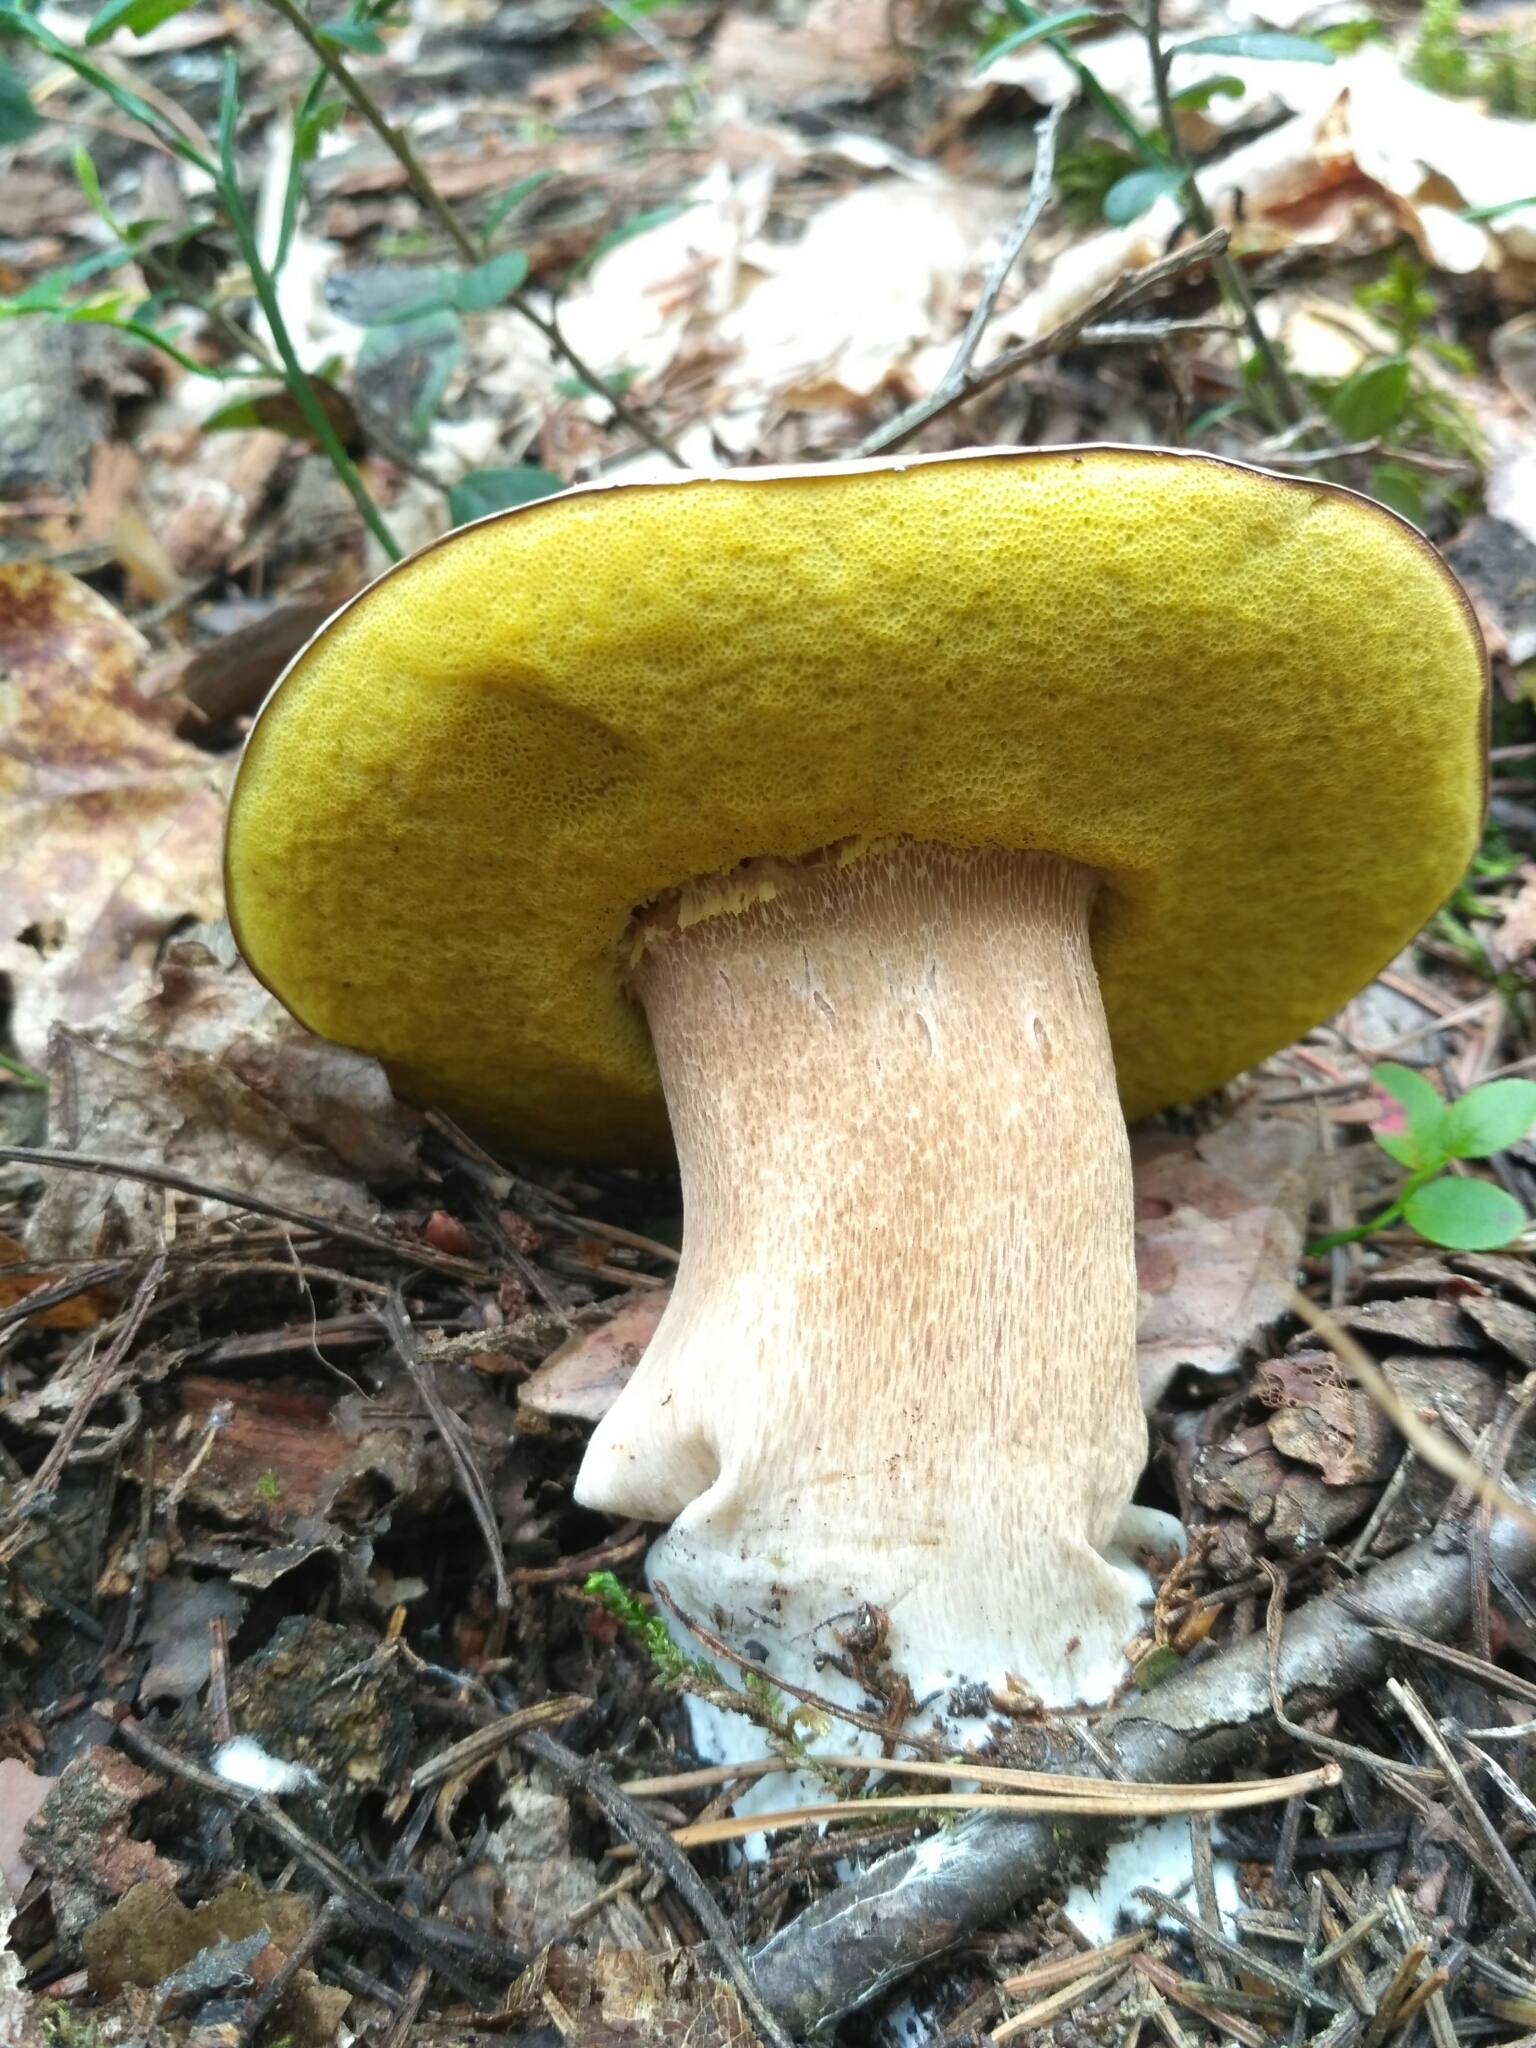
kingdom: Fungi
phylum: Basidiomycota
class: Agaricomycetes
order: Boletales
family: Boletaceae
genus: Boletus
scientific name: Boletus edulis
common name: Cep
